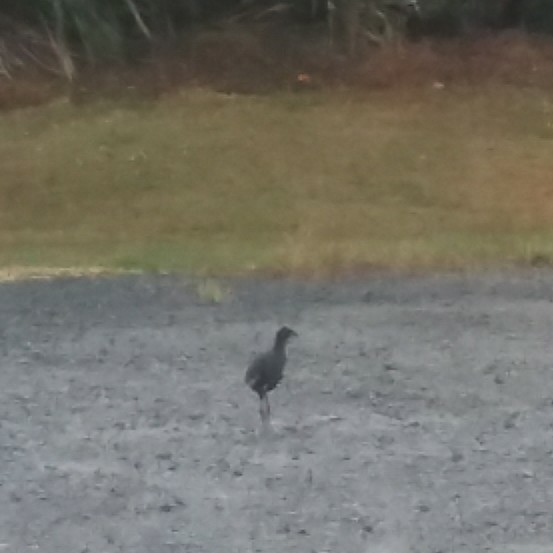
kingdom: Animalia
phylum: Chordata
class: Aves
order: Gruiformes
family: Rallidae
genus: Porphyrio
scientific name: Porphyrio melanotus
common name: Australasian swamphen
